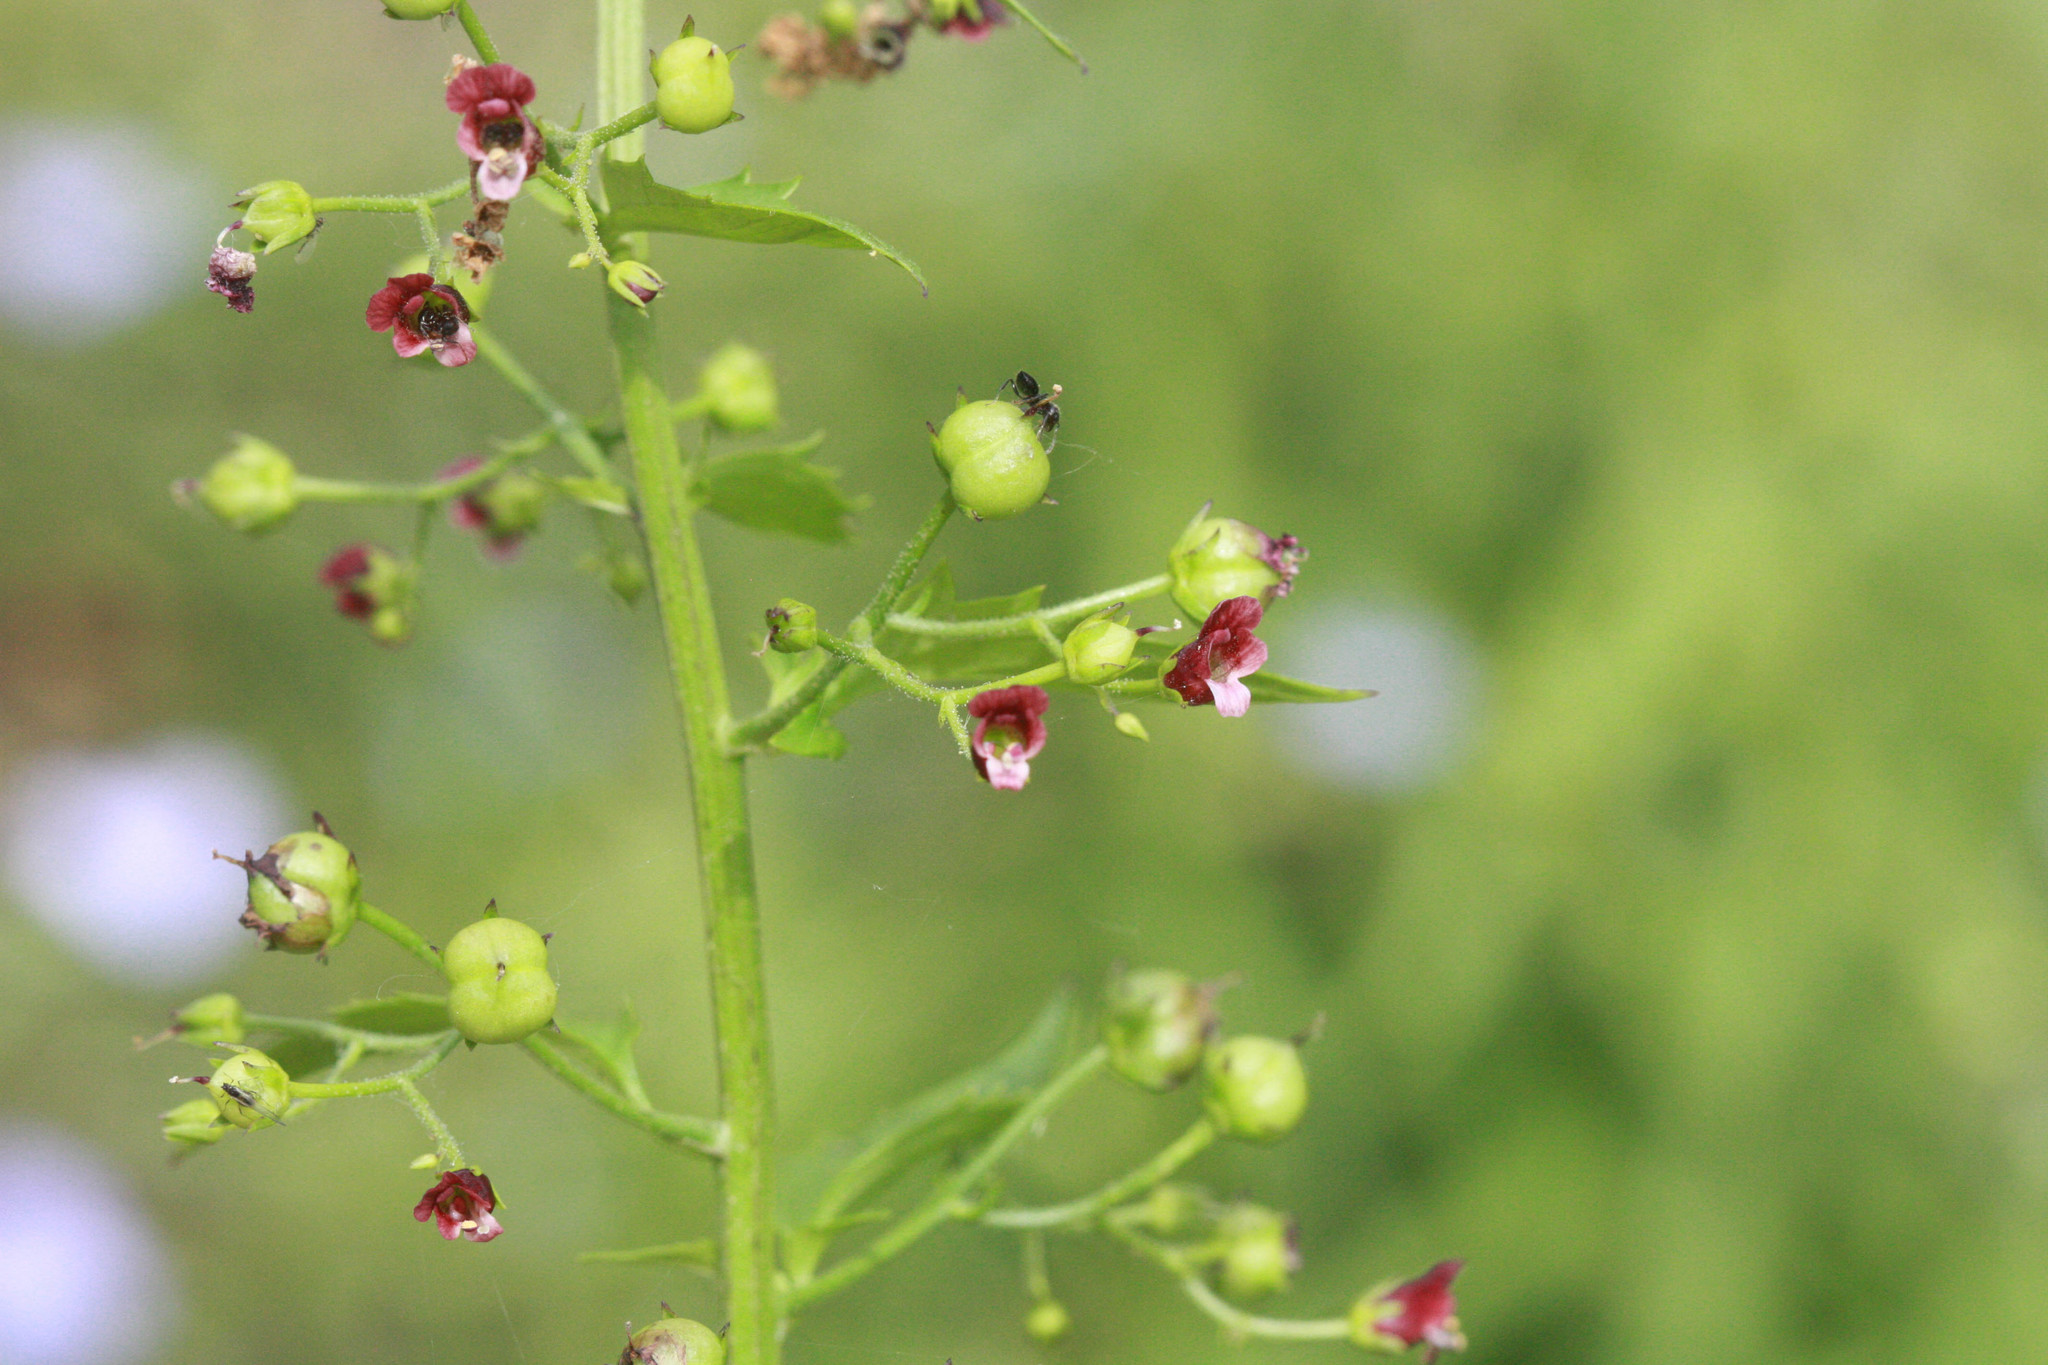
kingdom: Plantae
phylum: Tracheophyta
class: Magnoliopsida
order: Lamiales
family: Scrophulariaceae
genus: Scrophularia
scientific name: Scrophularia marilandica
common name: Eastern figwort
